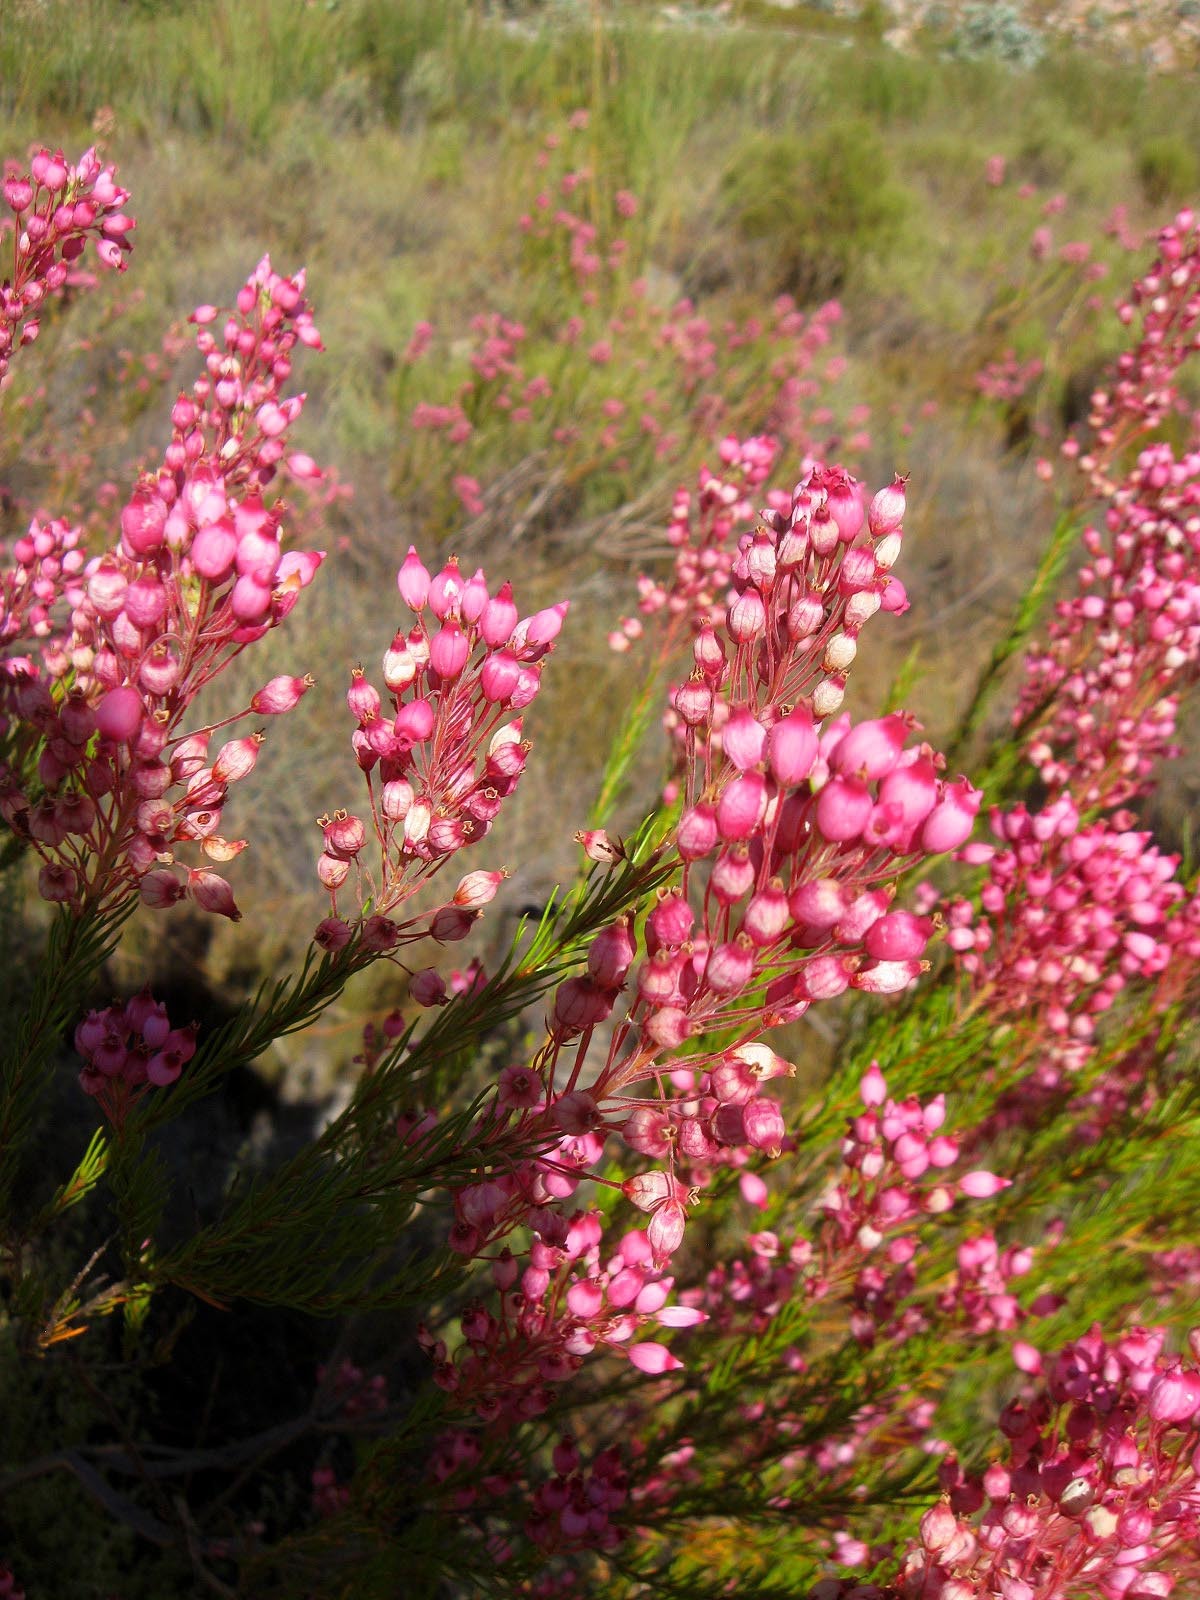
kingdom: Plantae
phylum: Tracheophyta
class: Magnoliopsida
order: Ericales
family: Ericaceae
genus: Erica
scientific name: Erica inflata
